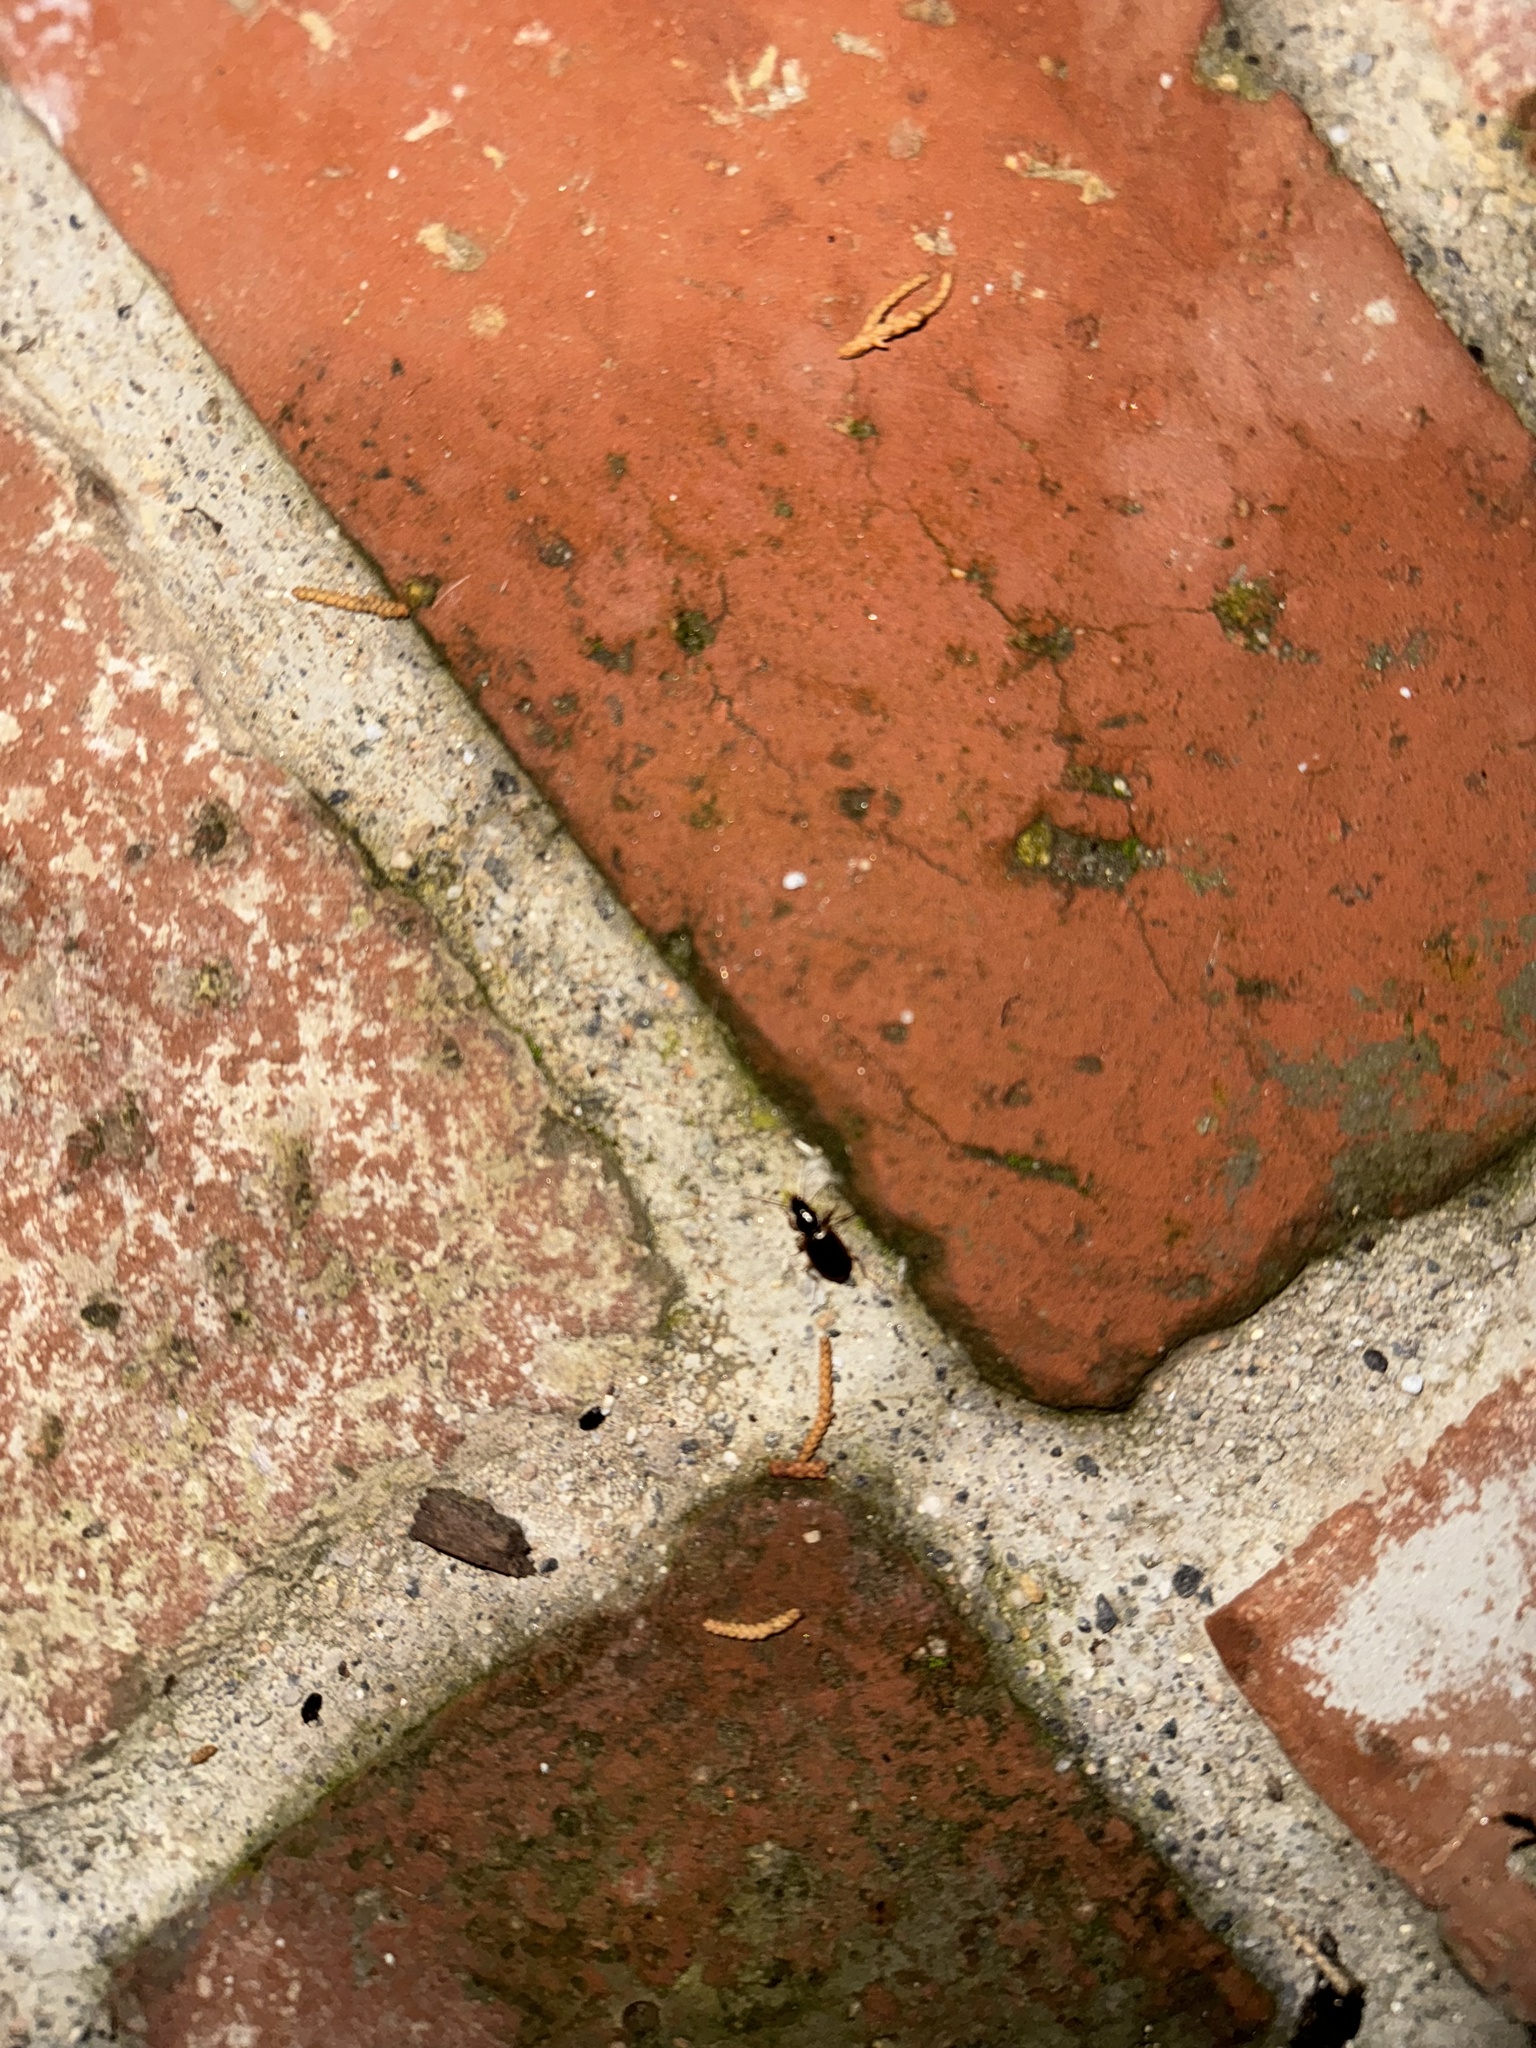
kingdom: Animalia
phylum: Arthropoda
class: Insecta
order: Coleoptera
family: Carabidae
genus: Tanystoma
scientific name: Tanystoma maculicolle
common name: Tule beetle
